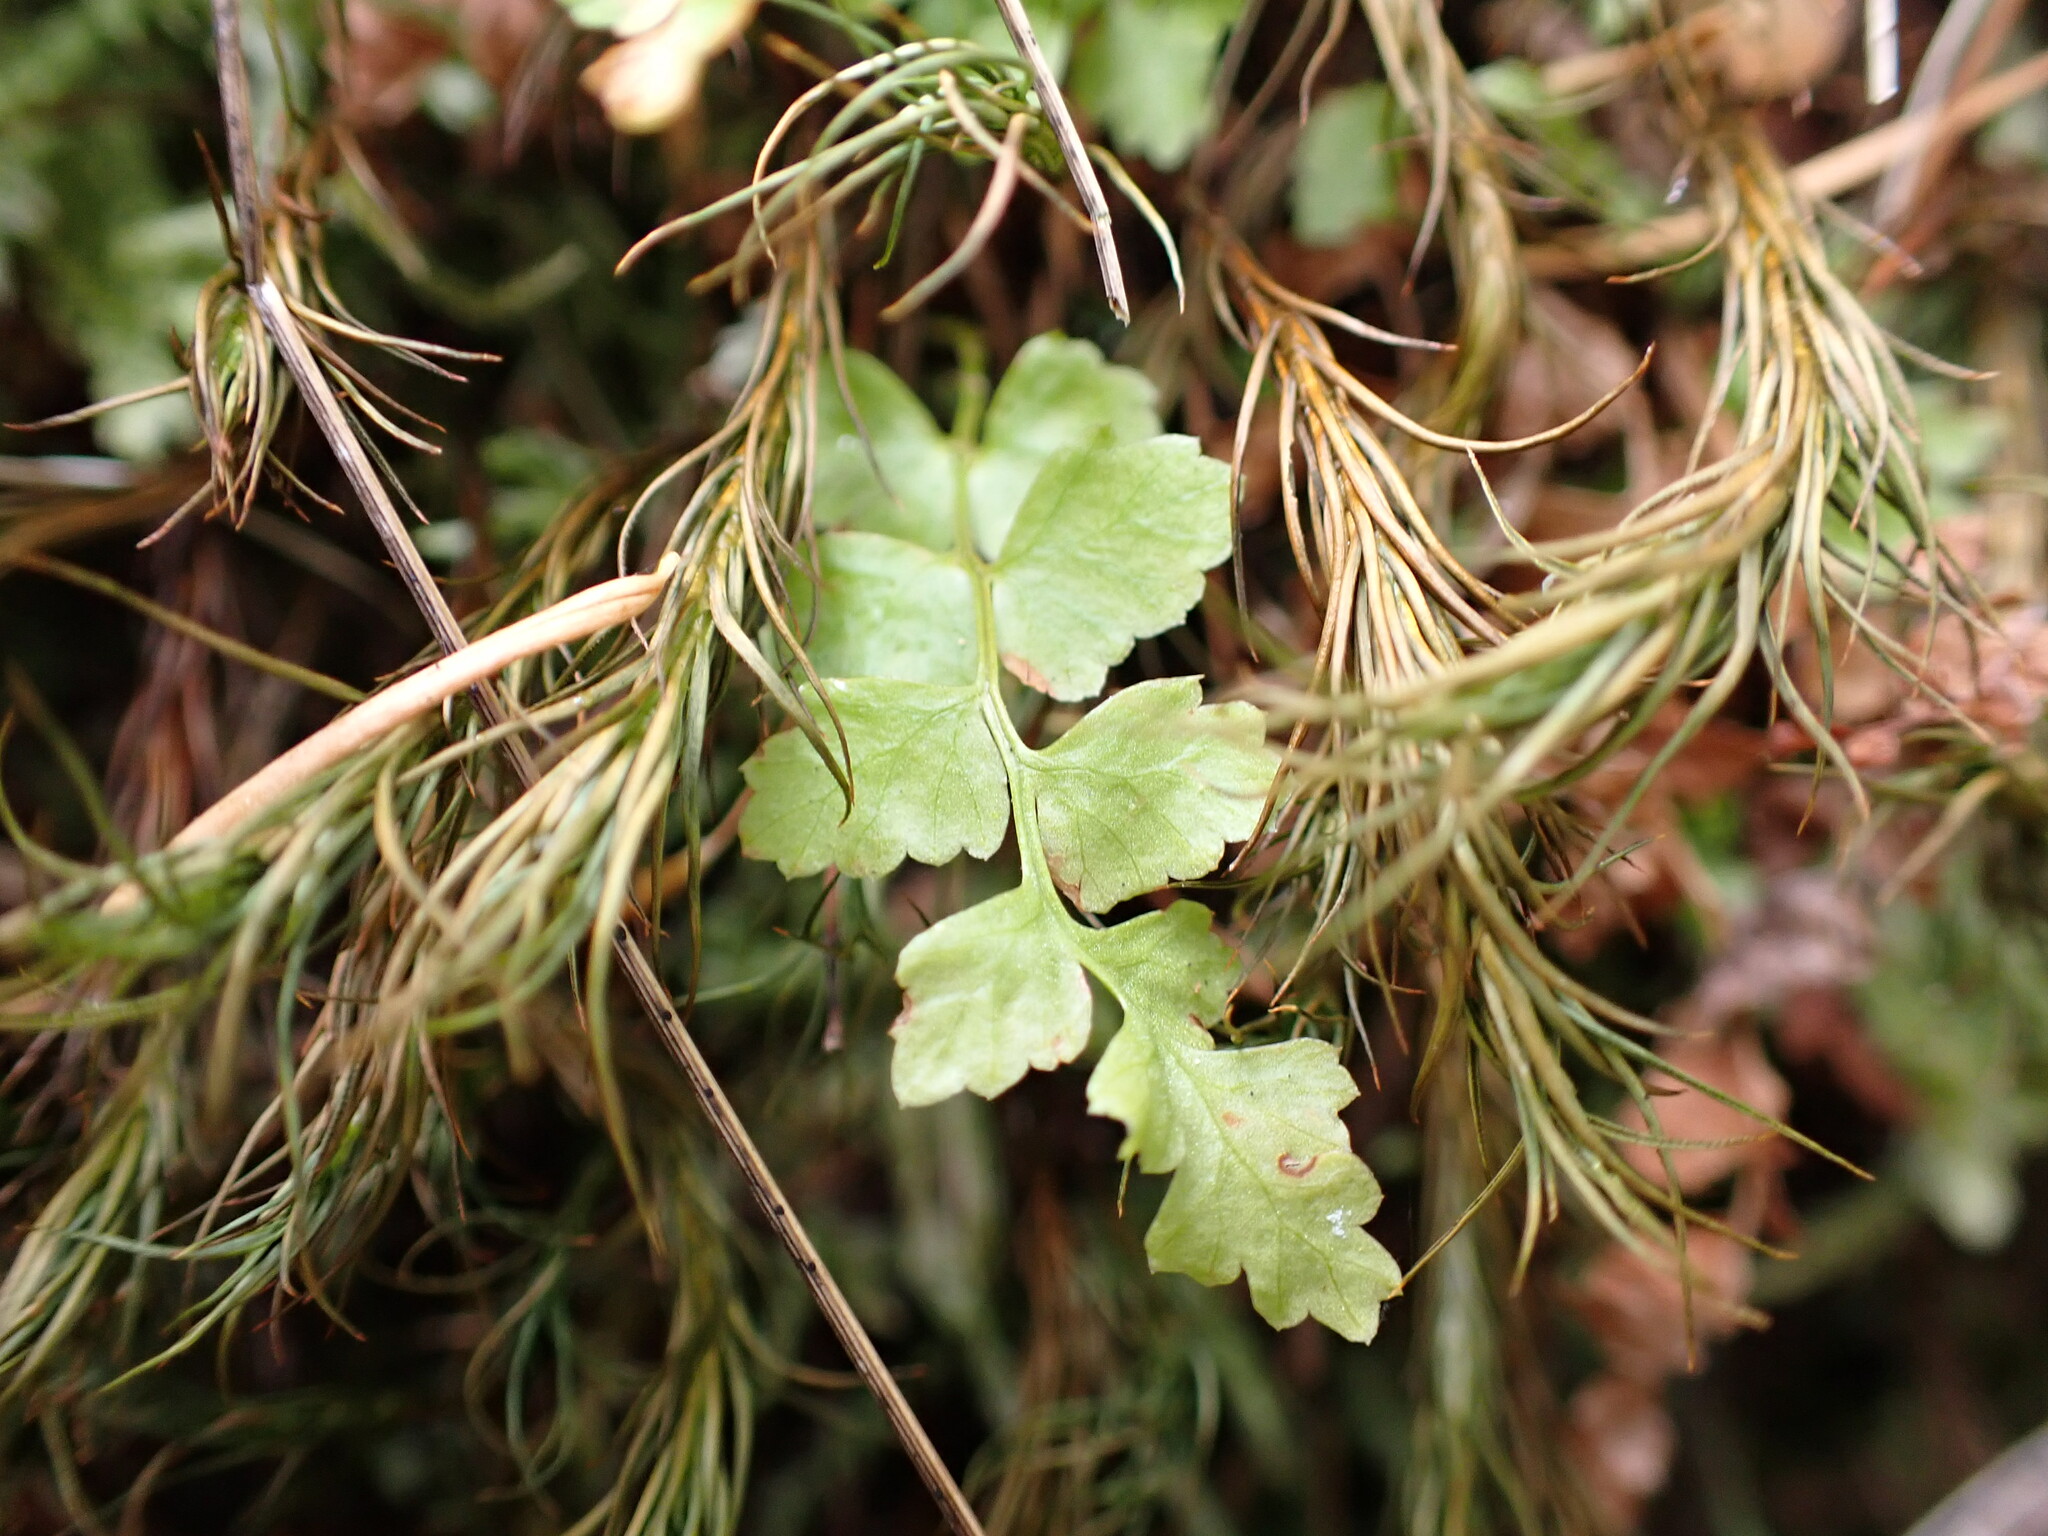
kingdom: Plantae
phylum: Tracheophyta
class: Polypodiopsida
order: Polypodiales
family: Dryopteridaceae
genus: Polystichum
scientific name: Polystichum munitum
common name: Western sword-fern
